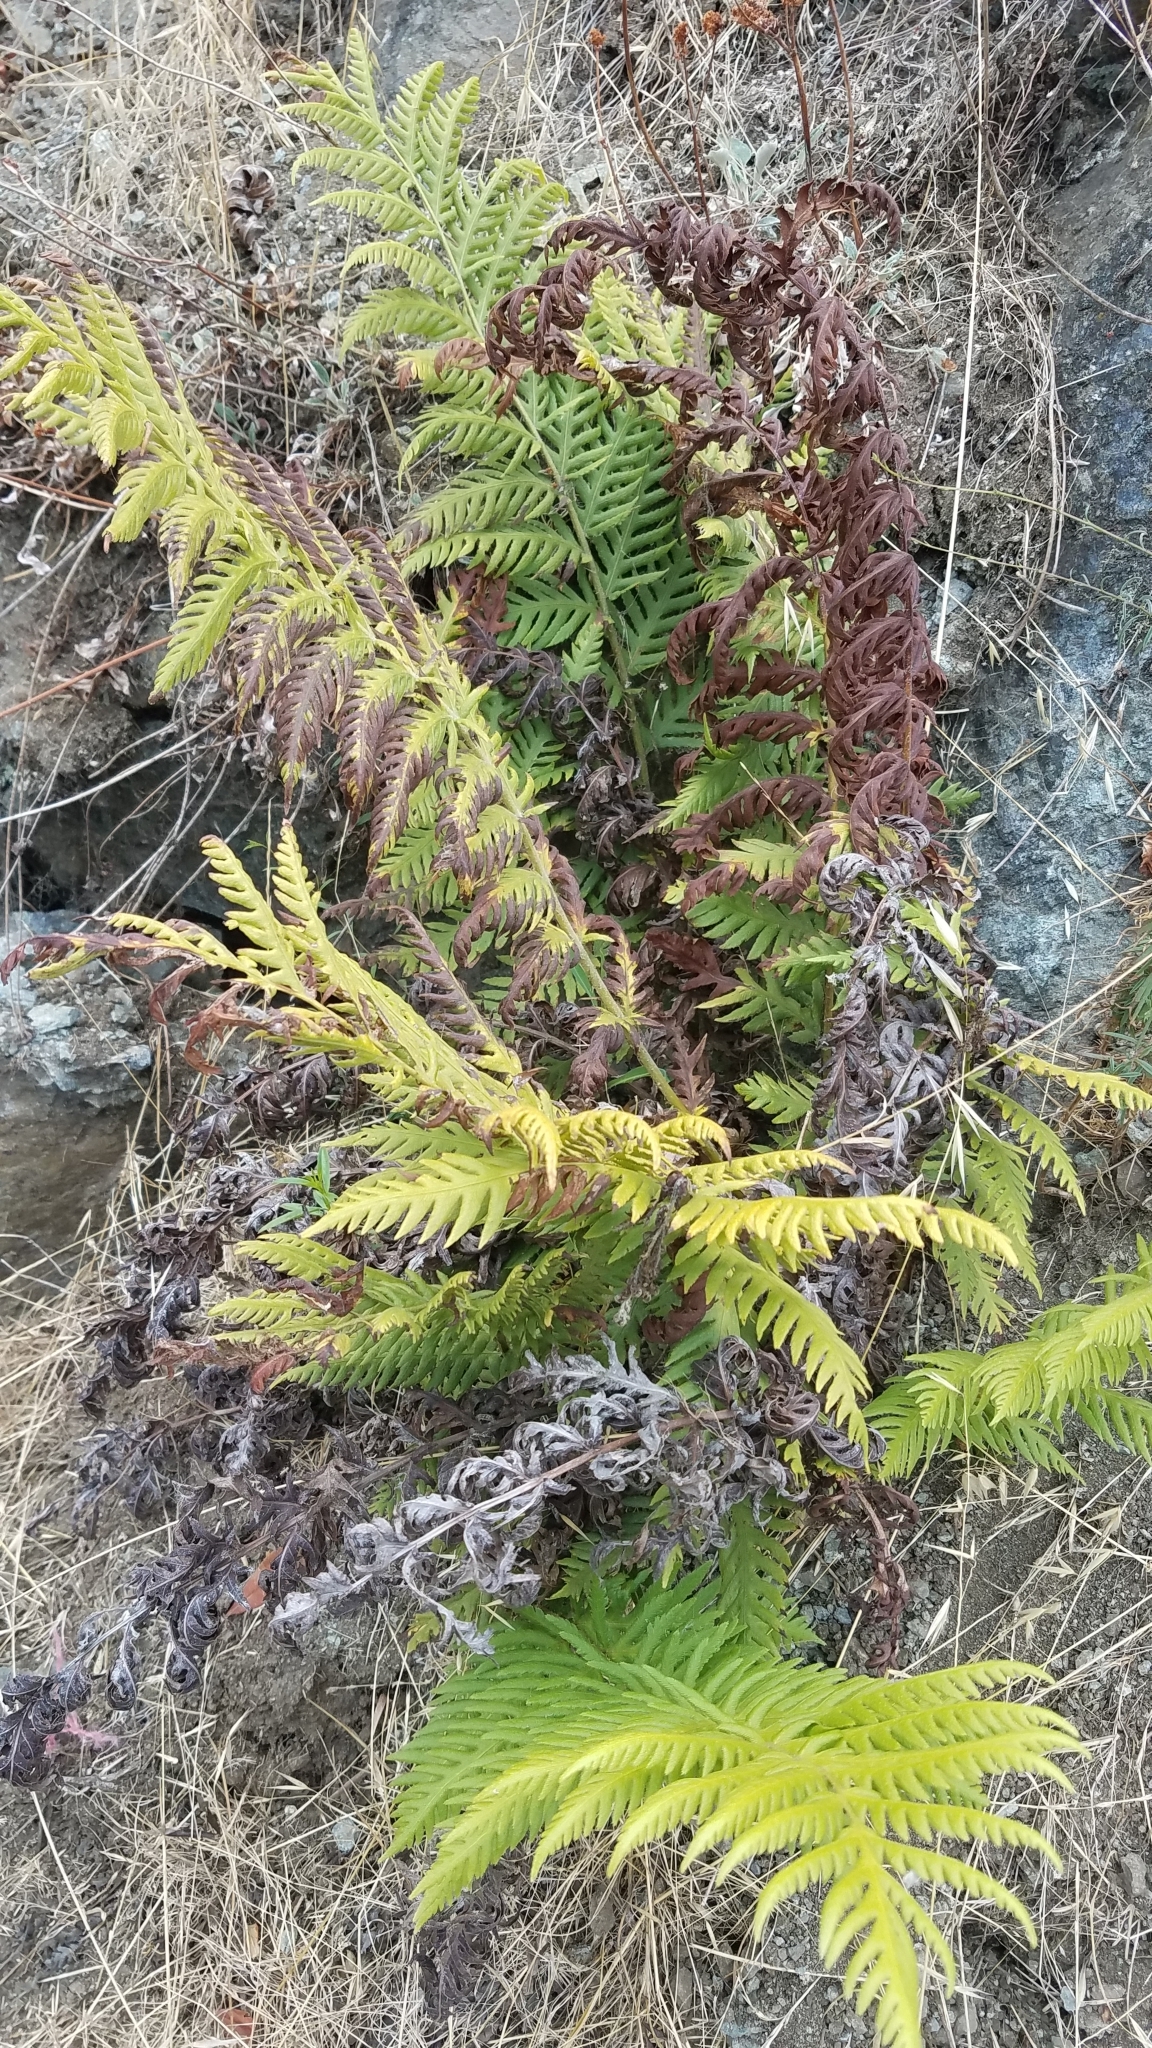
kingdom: Plantae
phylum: Tracheophyta
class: Polypodiopsida
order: Polypodiales
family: Blechnaceae
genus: Woodwardia
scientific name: Woodwardia fimbriata
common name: Giant chain fern
